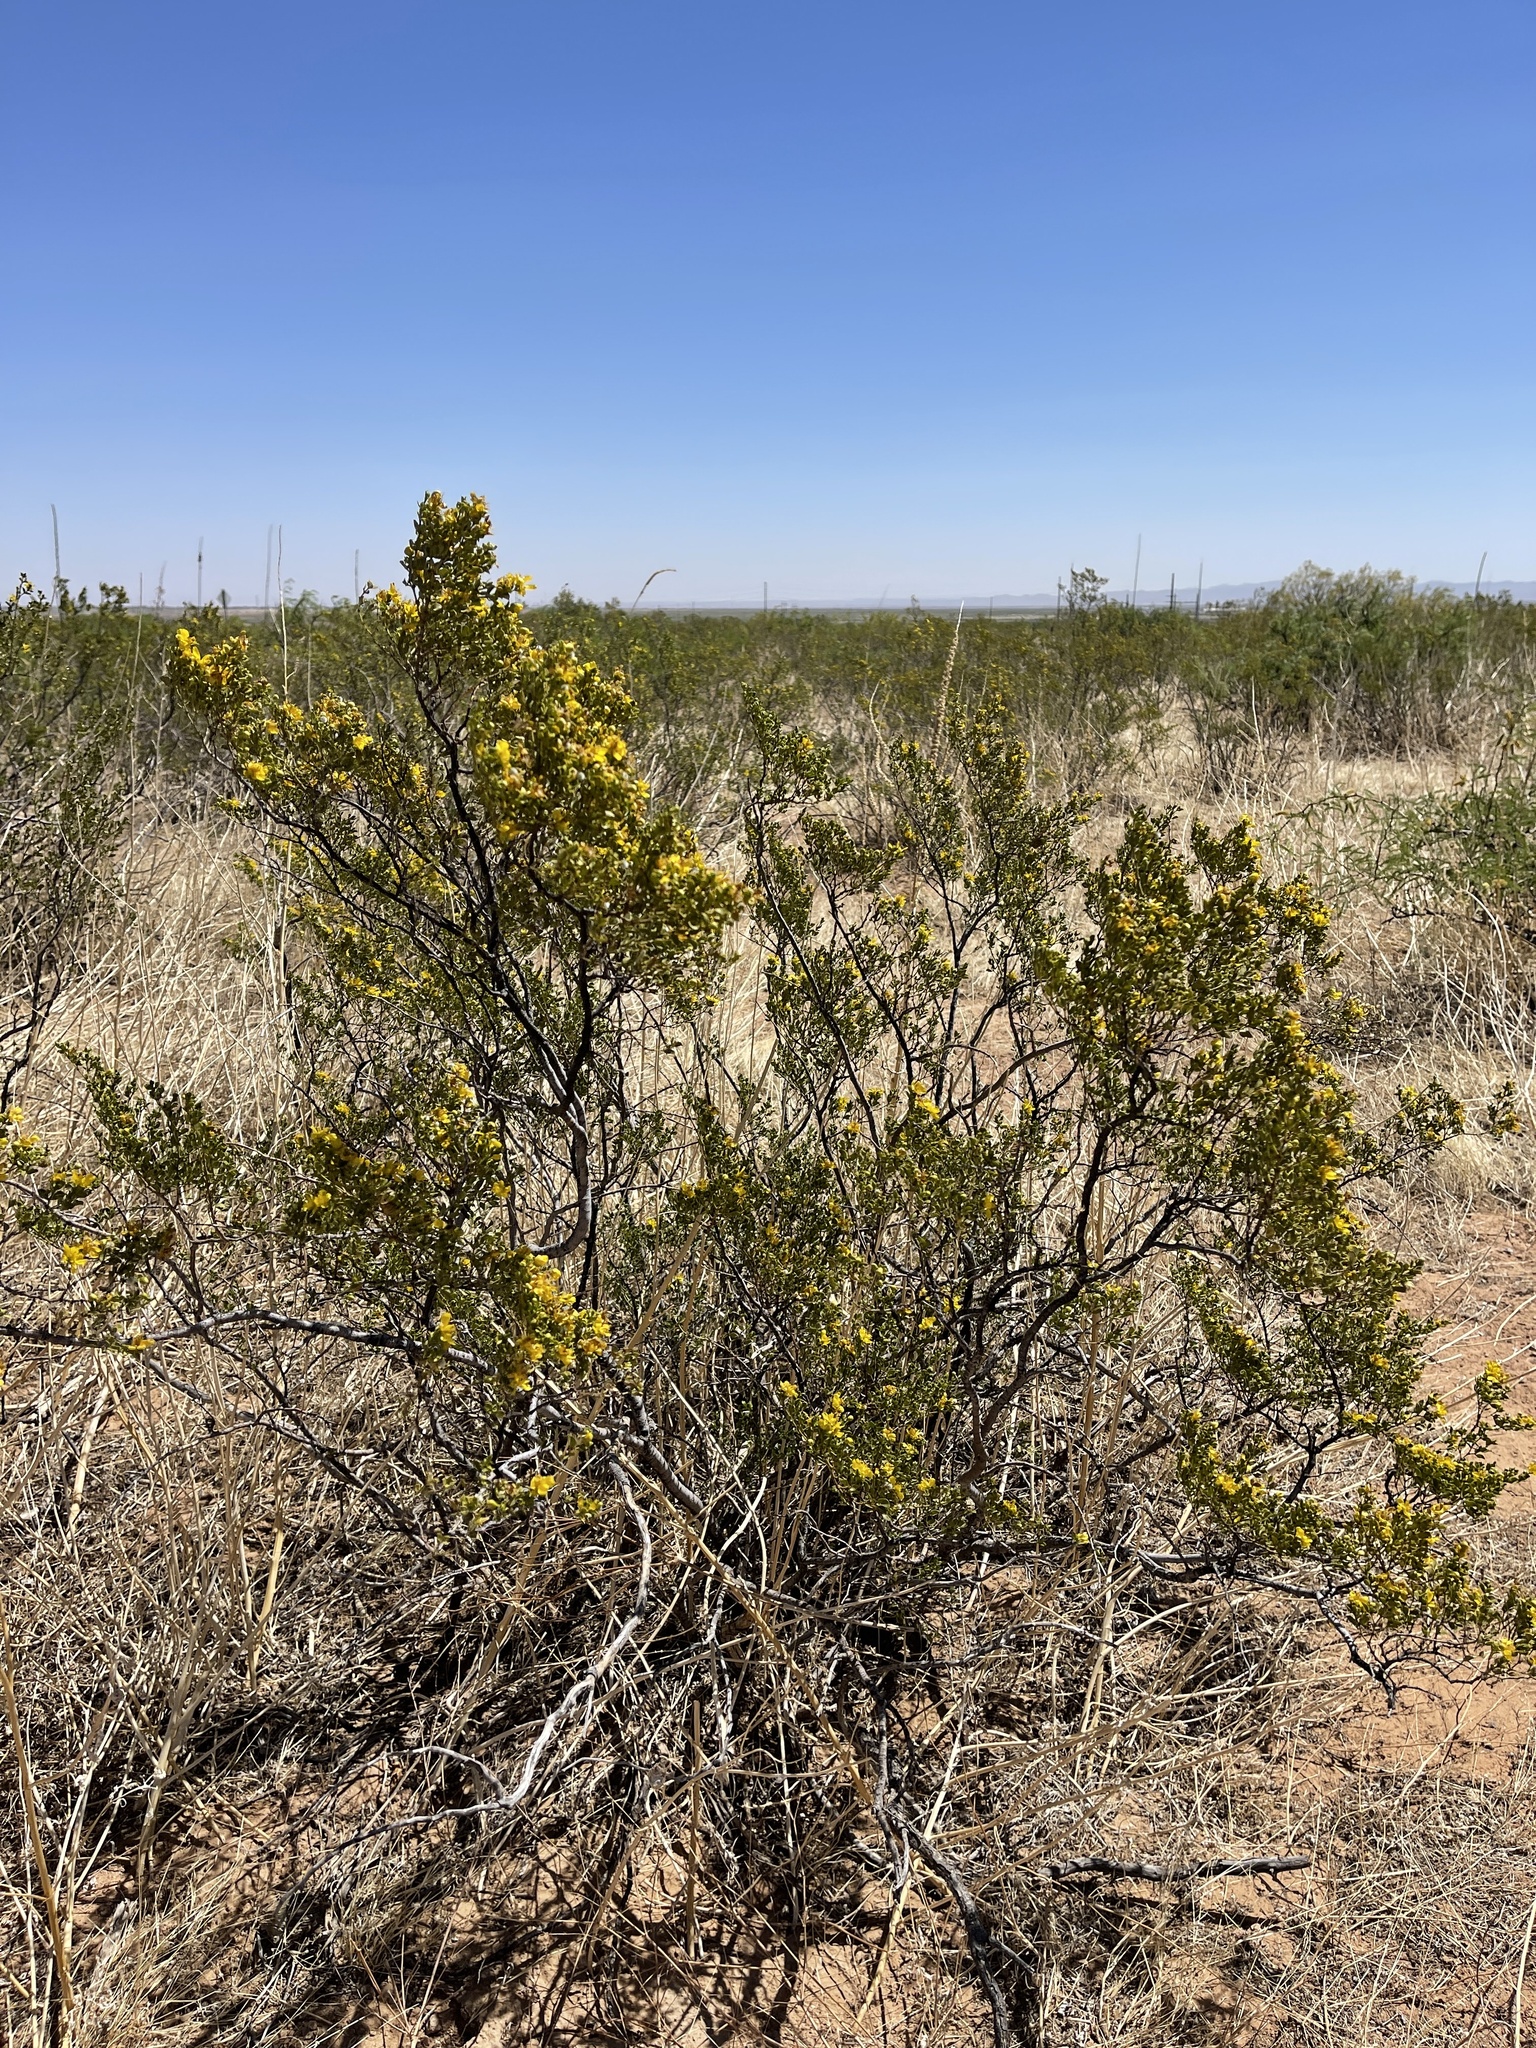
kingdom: Plantae
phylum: Tracheophyta
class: Magnoliopsida
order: Zygophyllales
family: Zygophyllaceae
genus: Larrea
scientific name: Larrea tridentata
